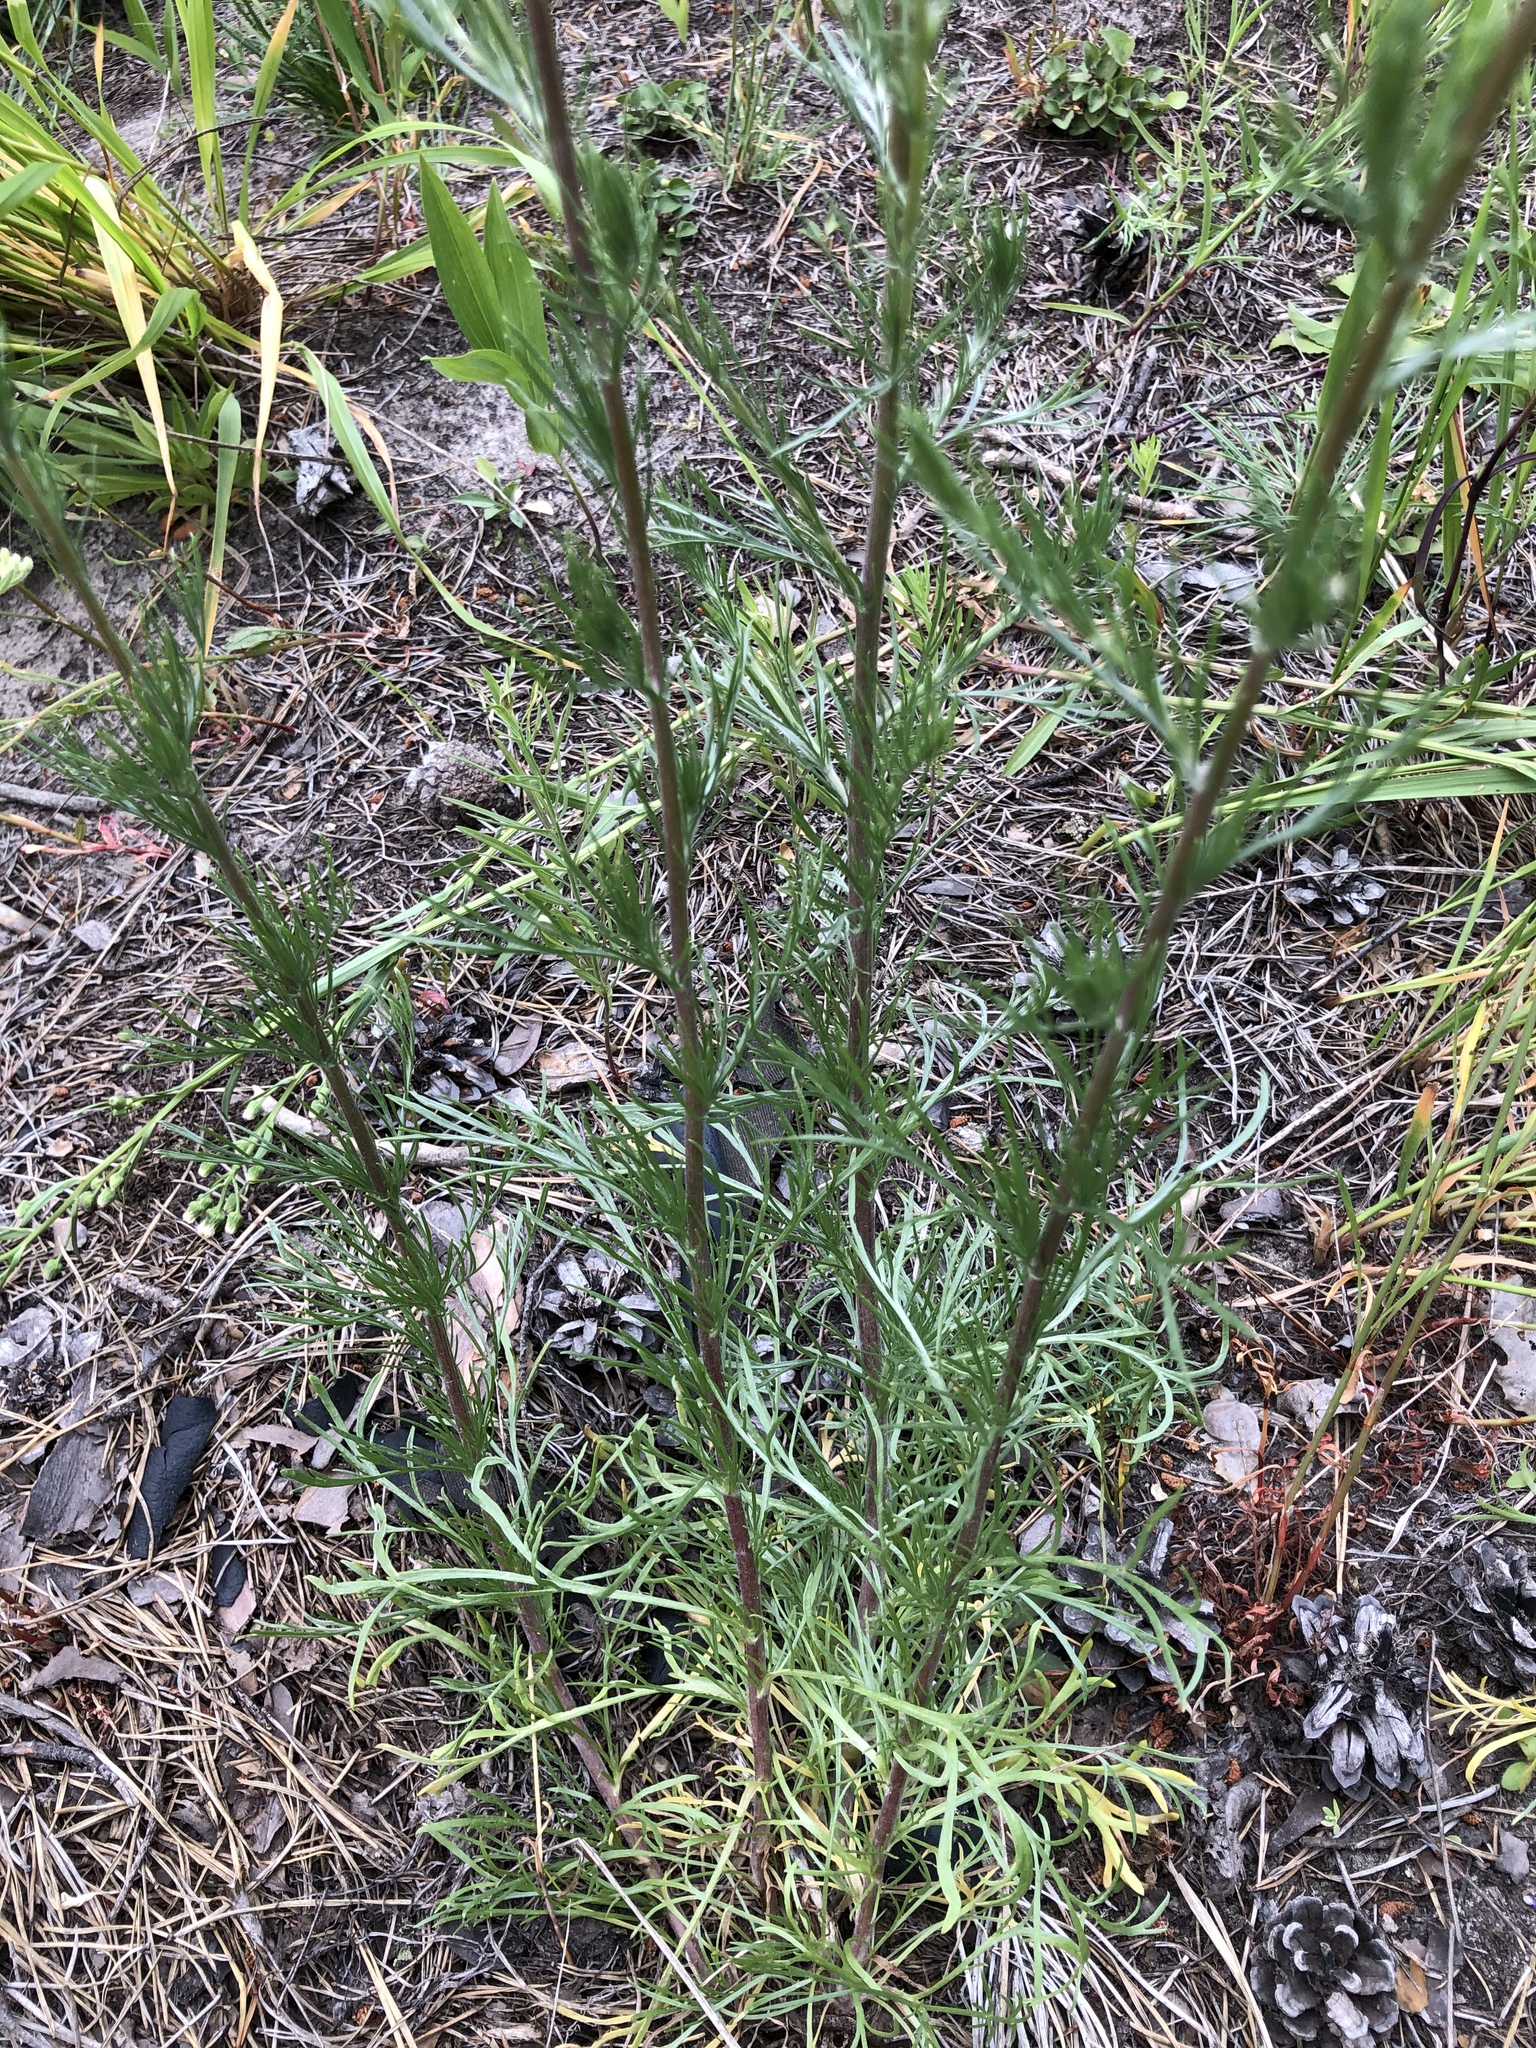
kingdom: Plantae
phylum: Tracheophyta
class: Magnoliopsida
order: Asterales
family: Asteraceae
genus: Artemisia
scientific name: Artemisia campestris
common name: Field wormwood
